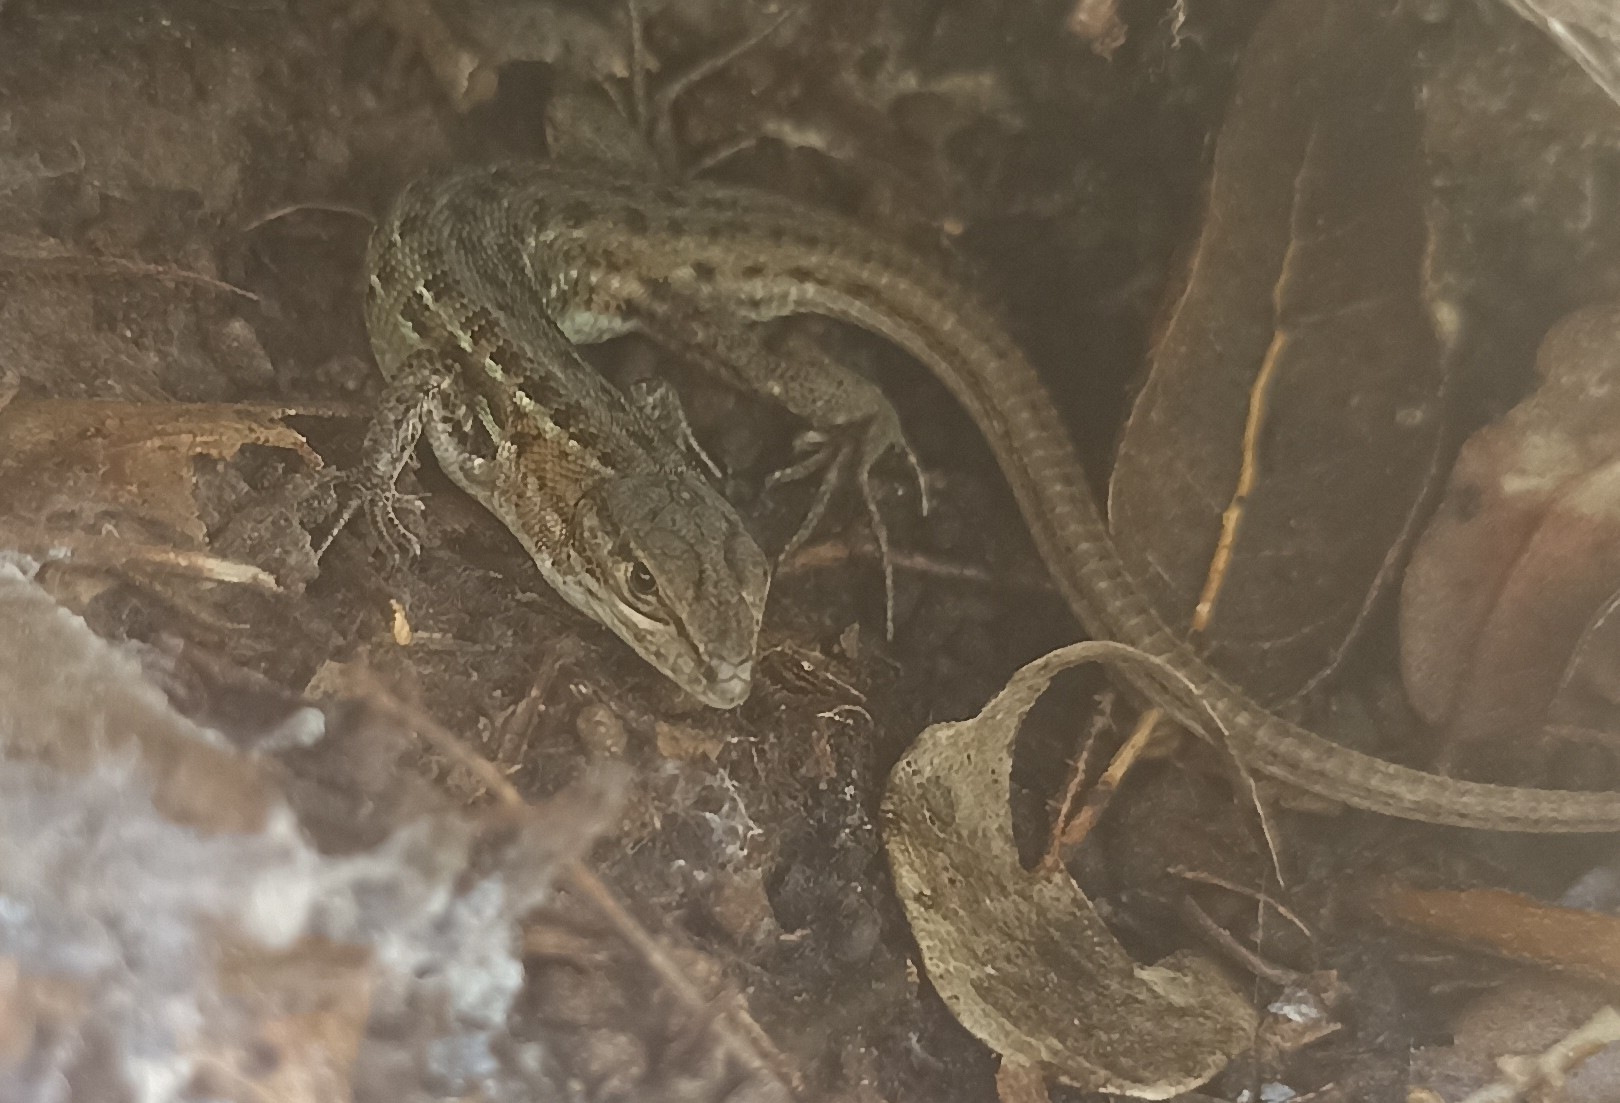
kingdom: Animalia
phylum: Chordata
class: Squamata
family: Lacertidae
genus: Psammodromus
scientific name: Psammodromus edwarsianus
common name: East iberian psammodromus
